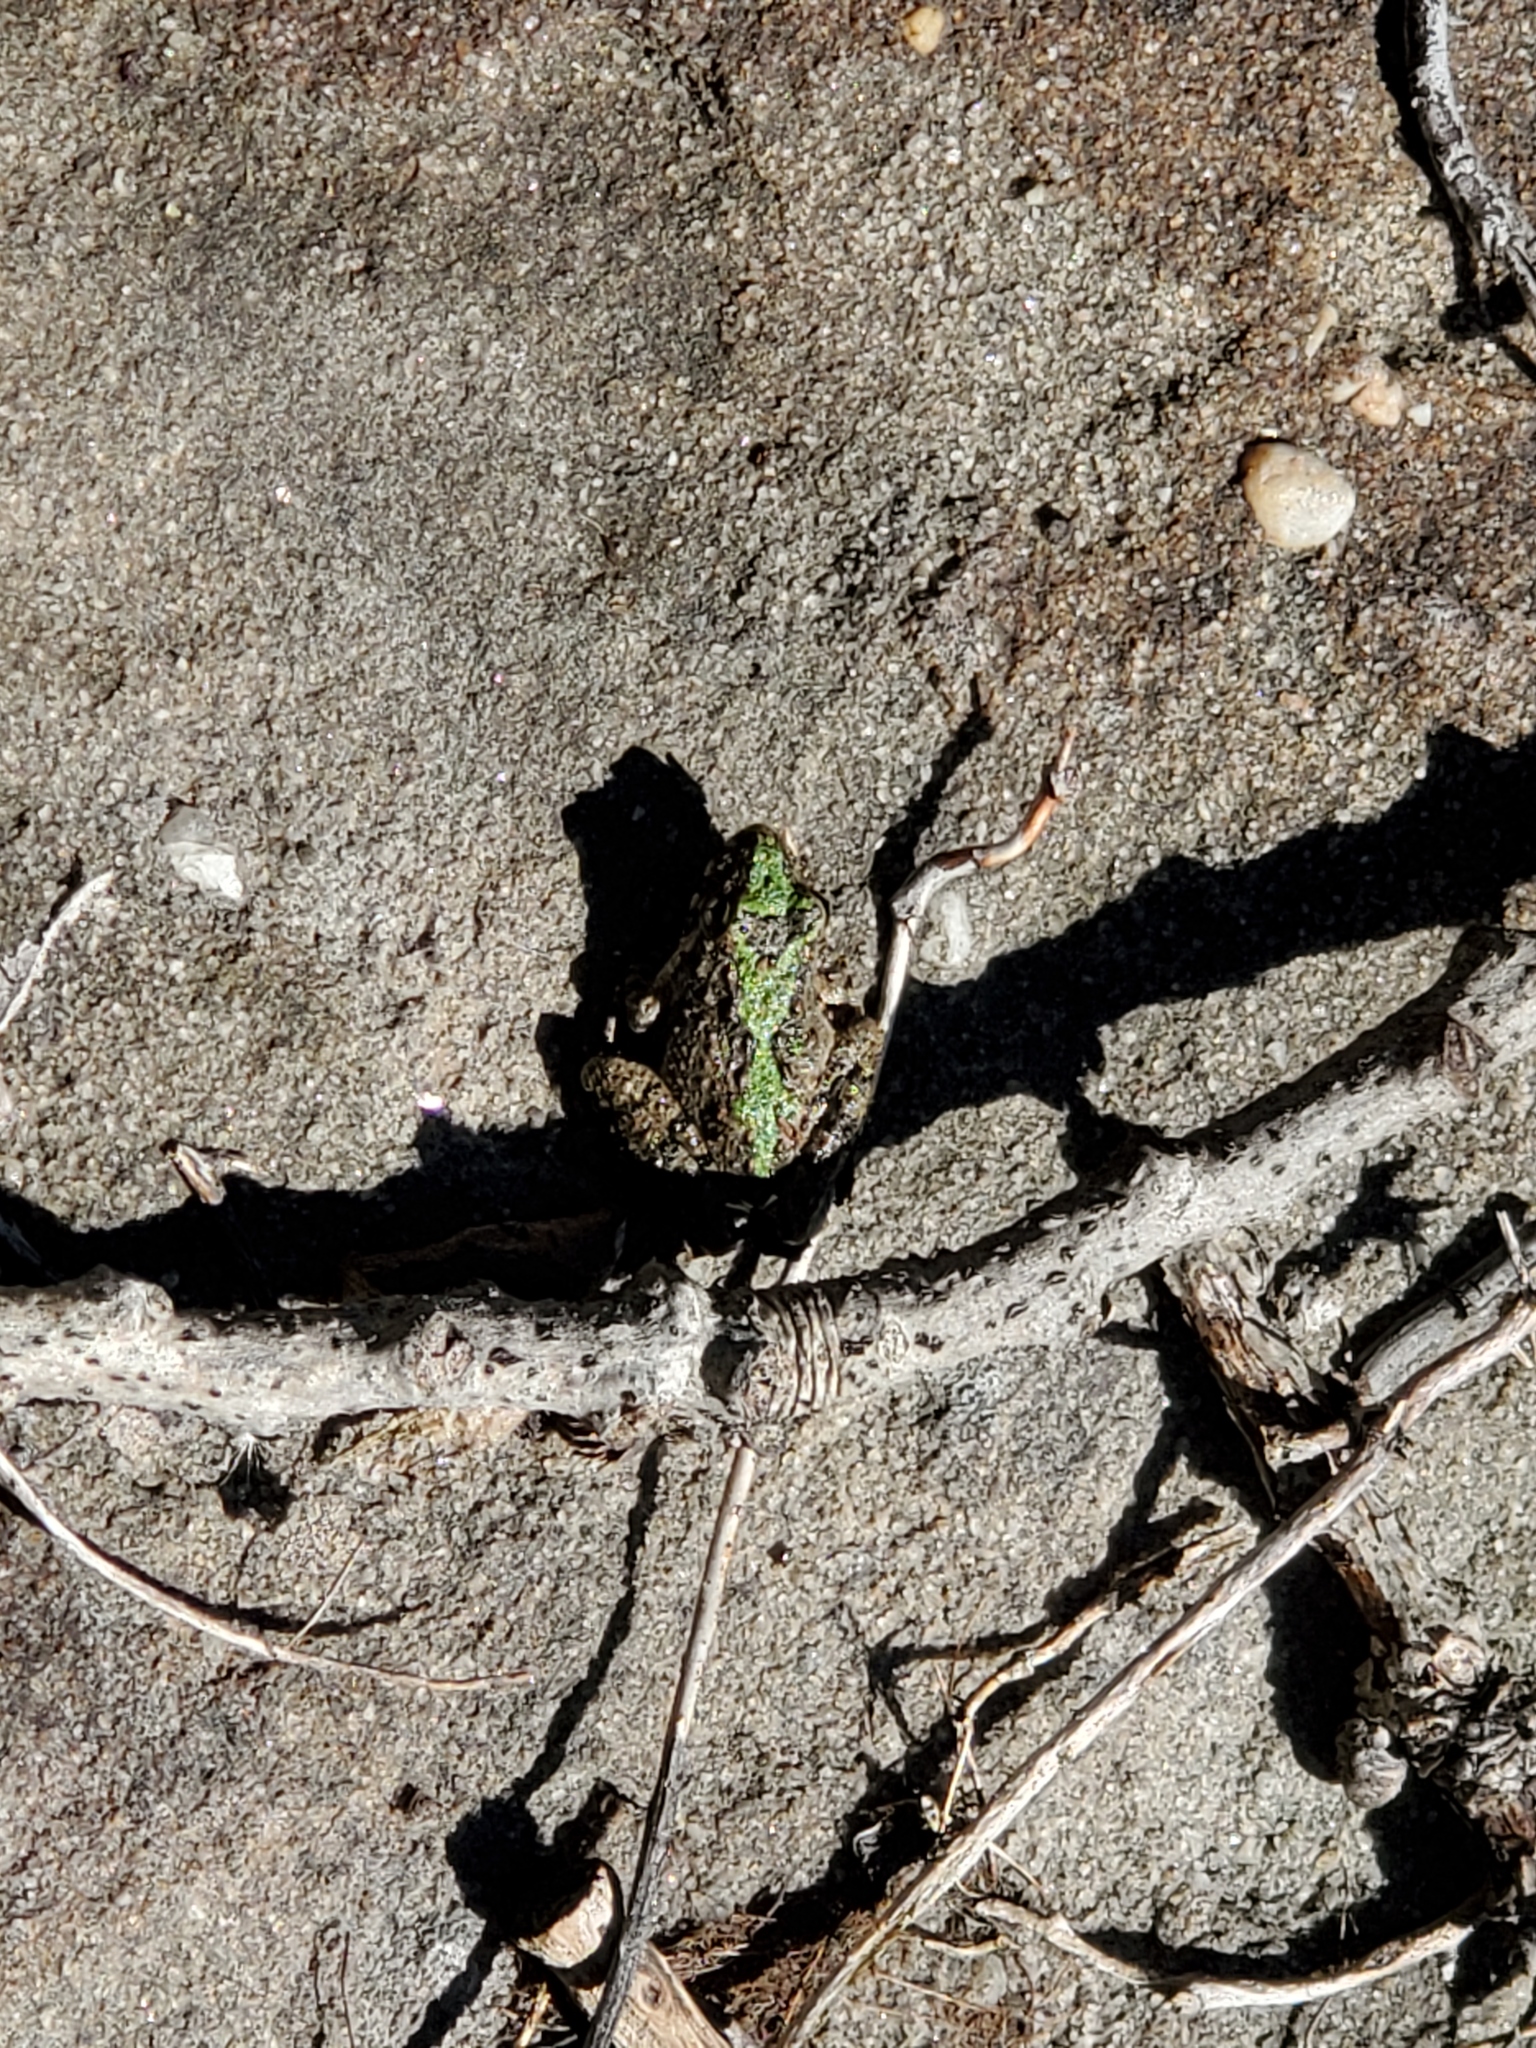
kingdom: Animalia
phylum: Chordata
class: Amphibia
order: Anura
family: Hylidae
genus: Acris
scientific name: Acris blanchardi
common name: Blanchard's cricket frog
